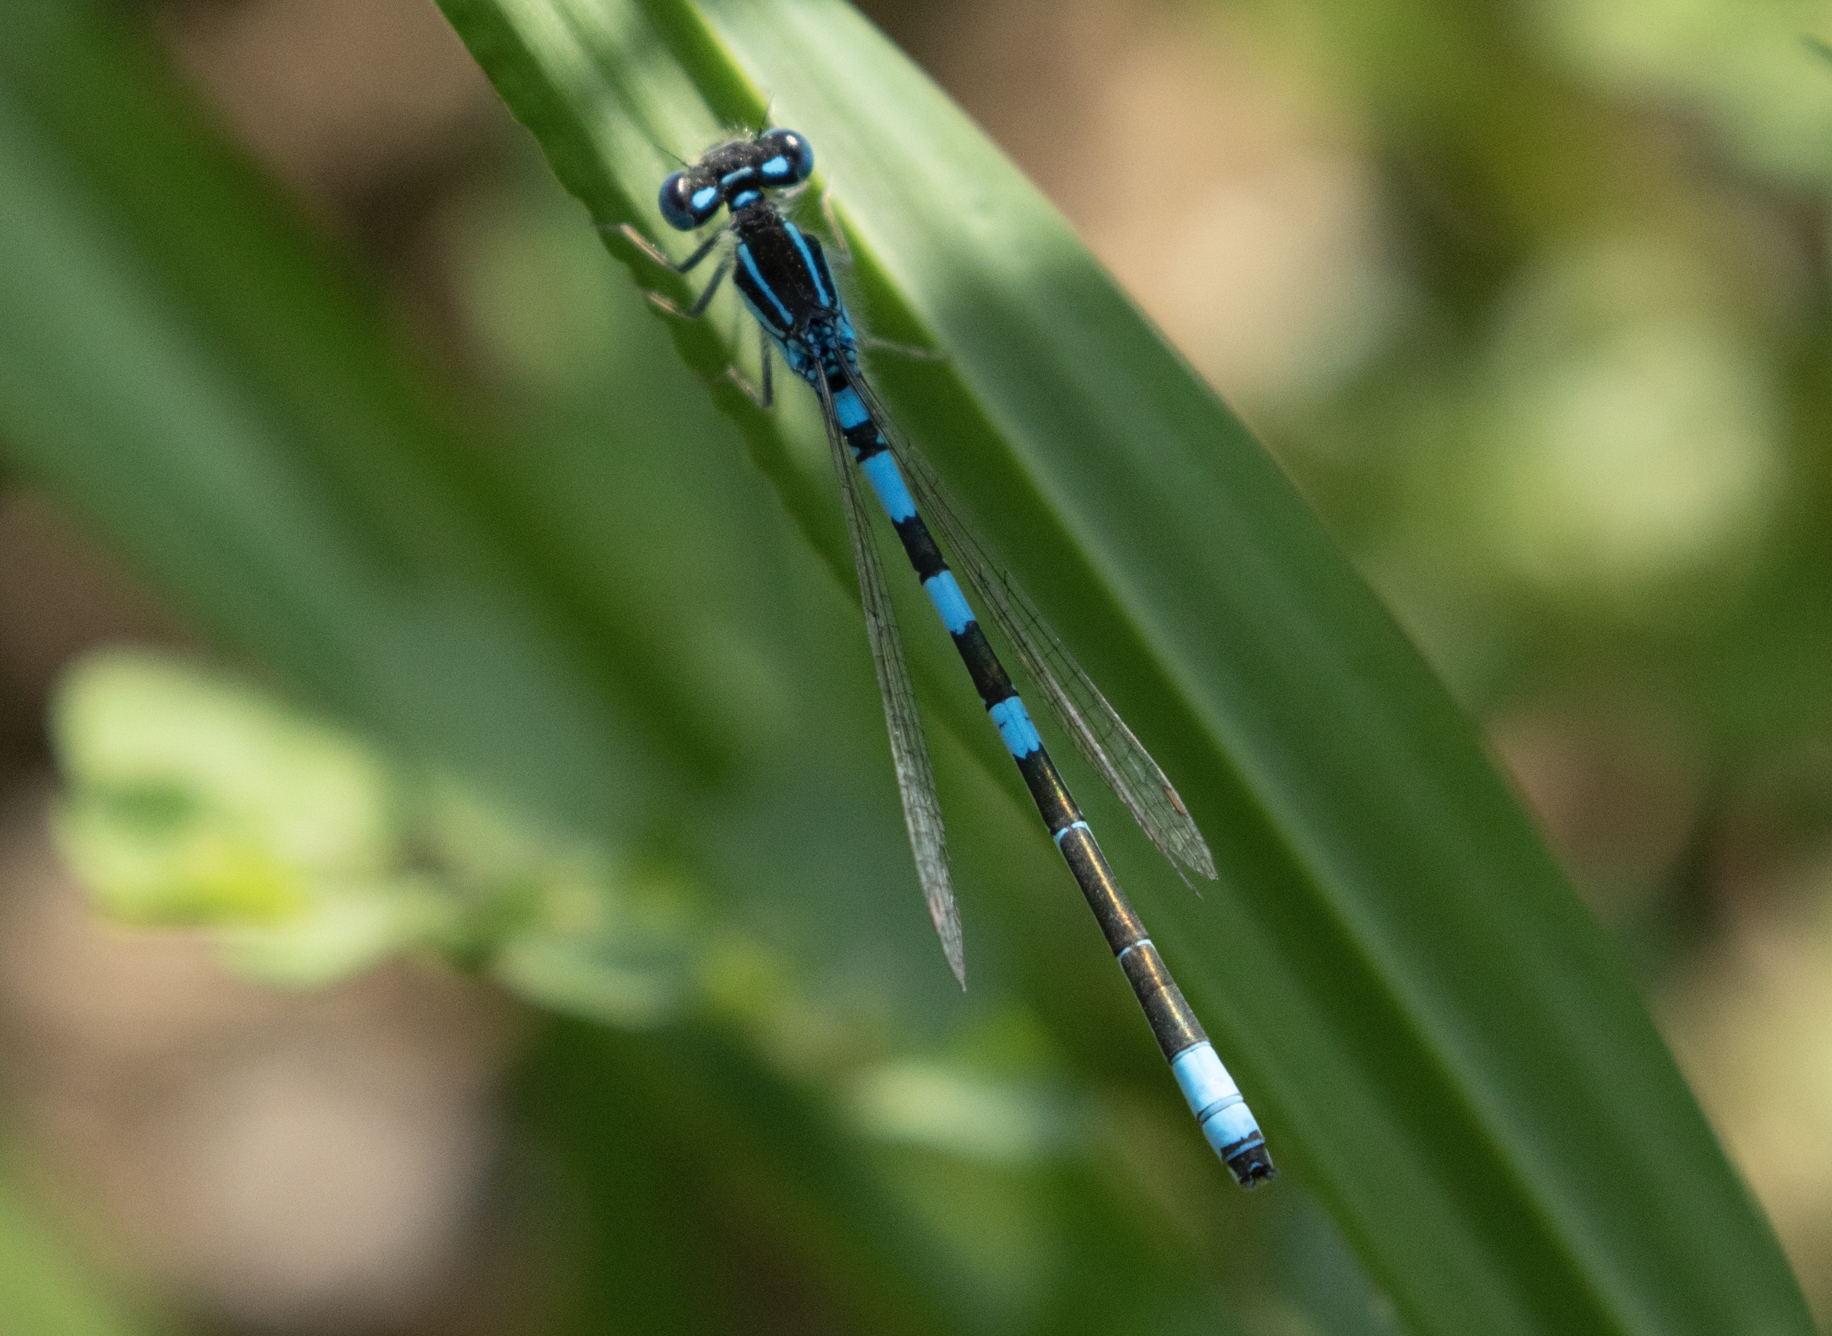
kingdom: Animalia
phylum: Arthropoda
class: Insecta
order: Odonata
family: Coenagrionidae
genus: Coenagrion
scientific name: Coenagrion scitulum
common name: Dainty bluet
